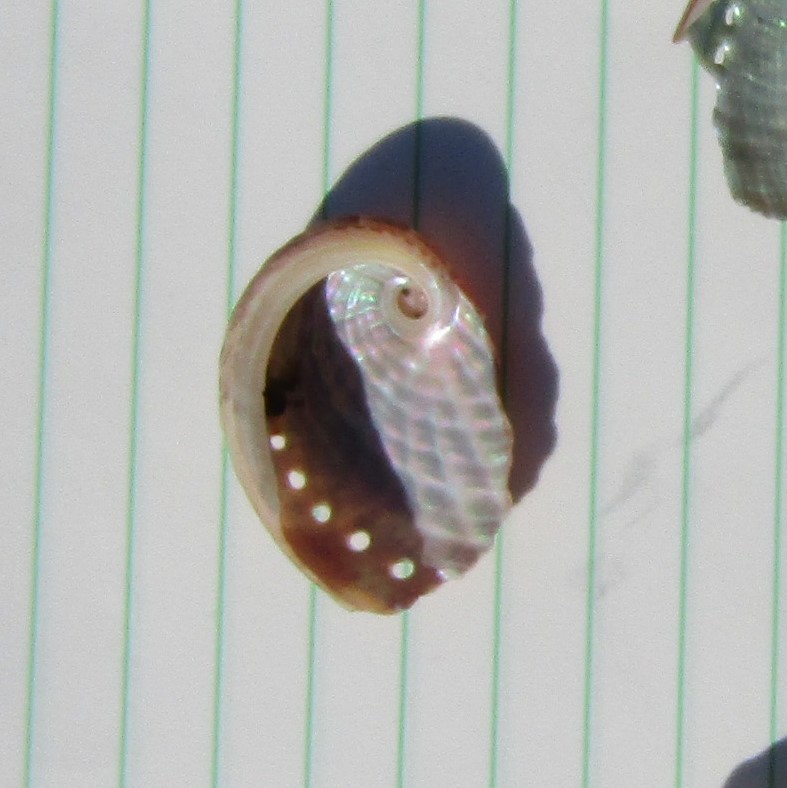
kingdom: Animalia
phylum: Mollusca
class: Gastropoda
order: Lepetellida
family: Haliotidae
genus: Haliotis
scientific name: Haliotis australis
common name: Silver abalone
